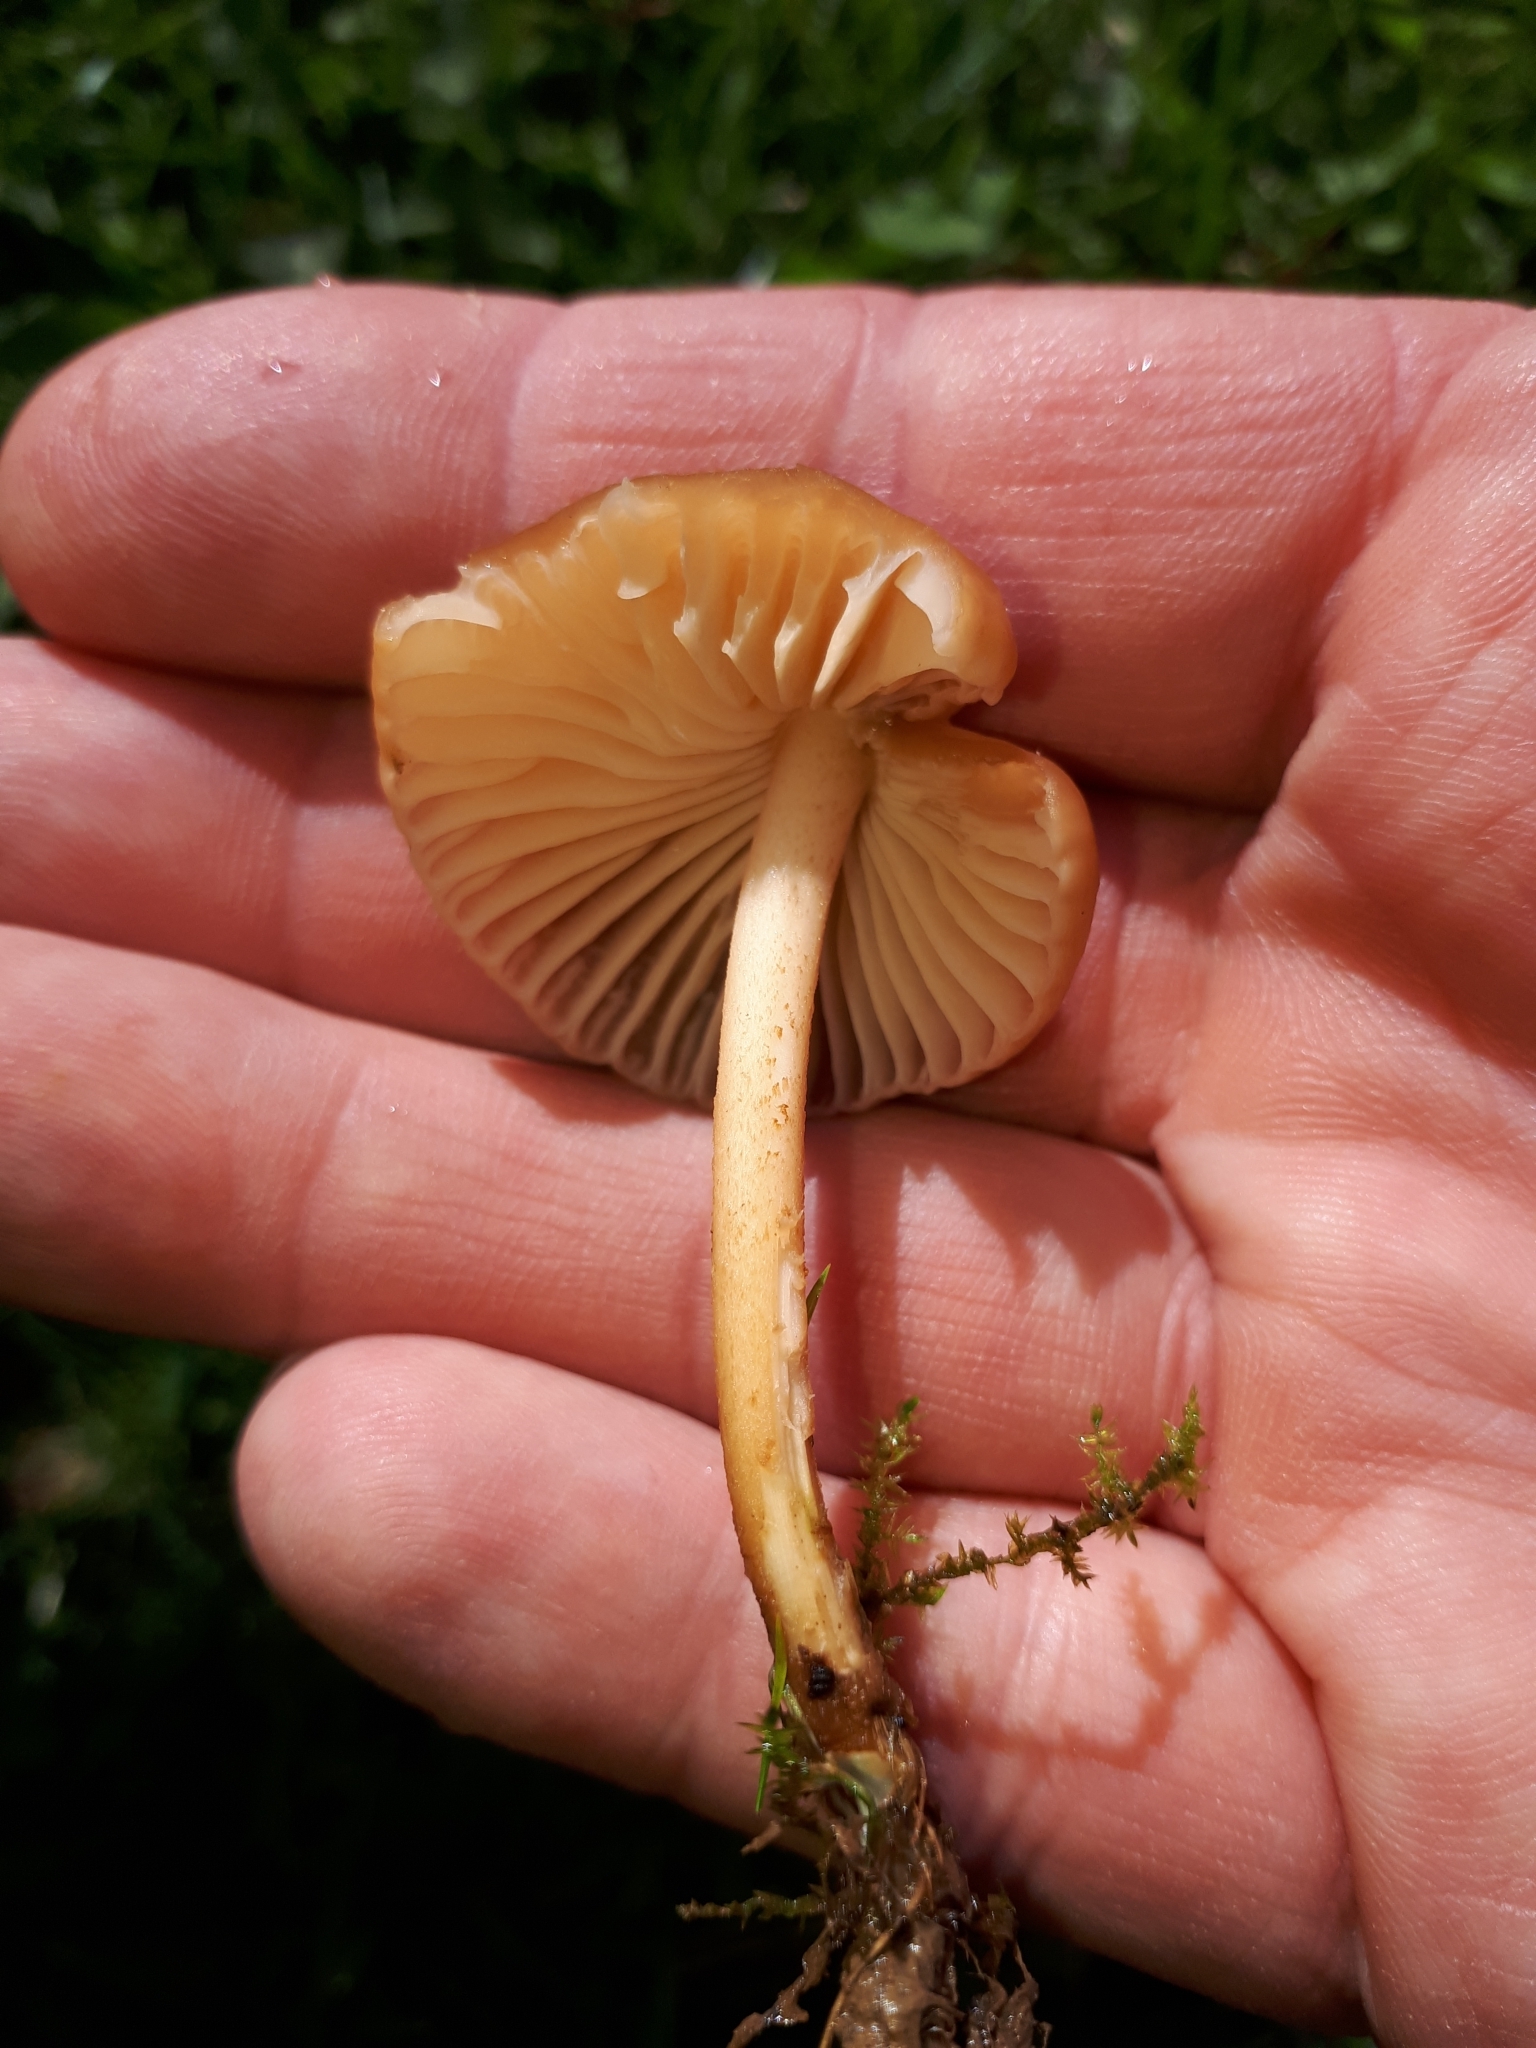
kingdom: Fungi
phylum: Basidiomycota
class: Agaricomycetes
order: Agaricales
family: Marasmiaceae
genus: Marasmius
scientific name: Marasmius oreades
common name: Fairy ring champignon
